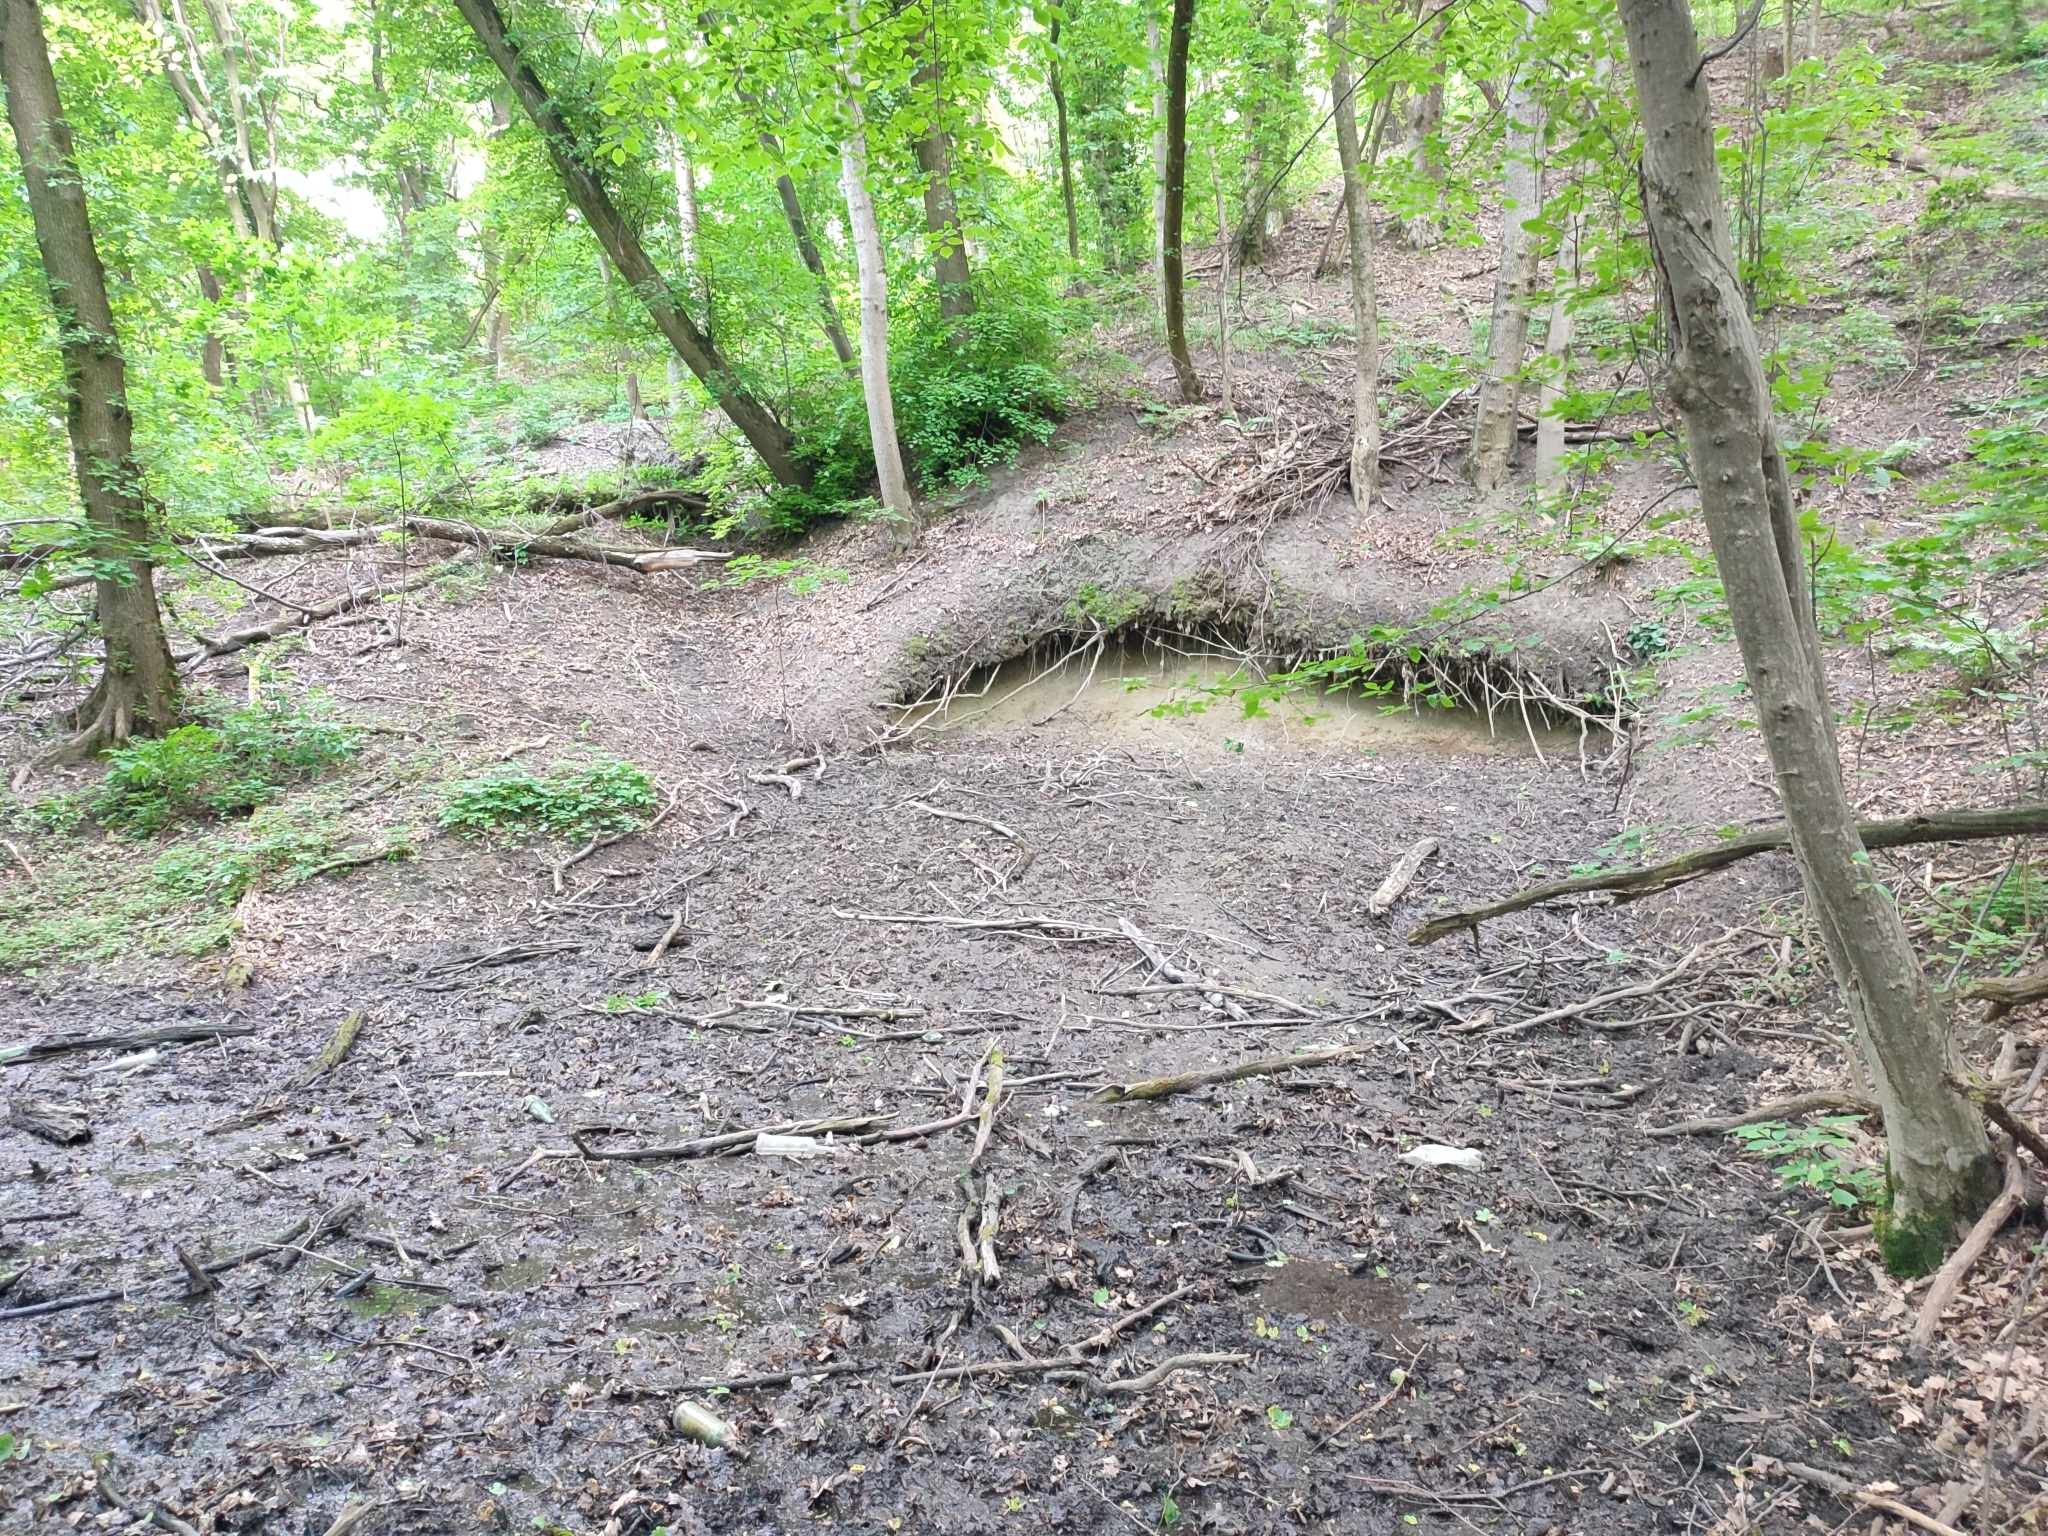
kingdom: Plantae
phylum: Tracheophyta
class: Magnoliopsida
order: Fagales
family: Betulaceae
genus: Carpinus
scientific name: Carpinus betulus
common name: Hornbeam
